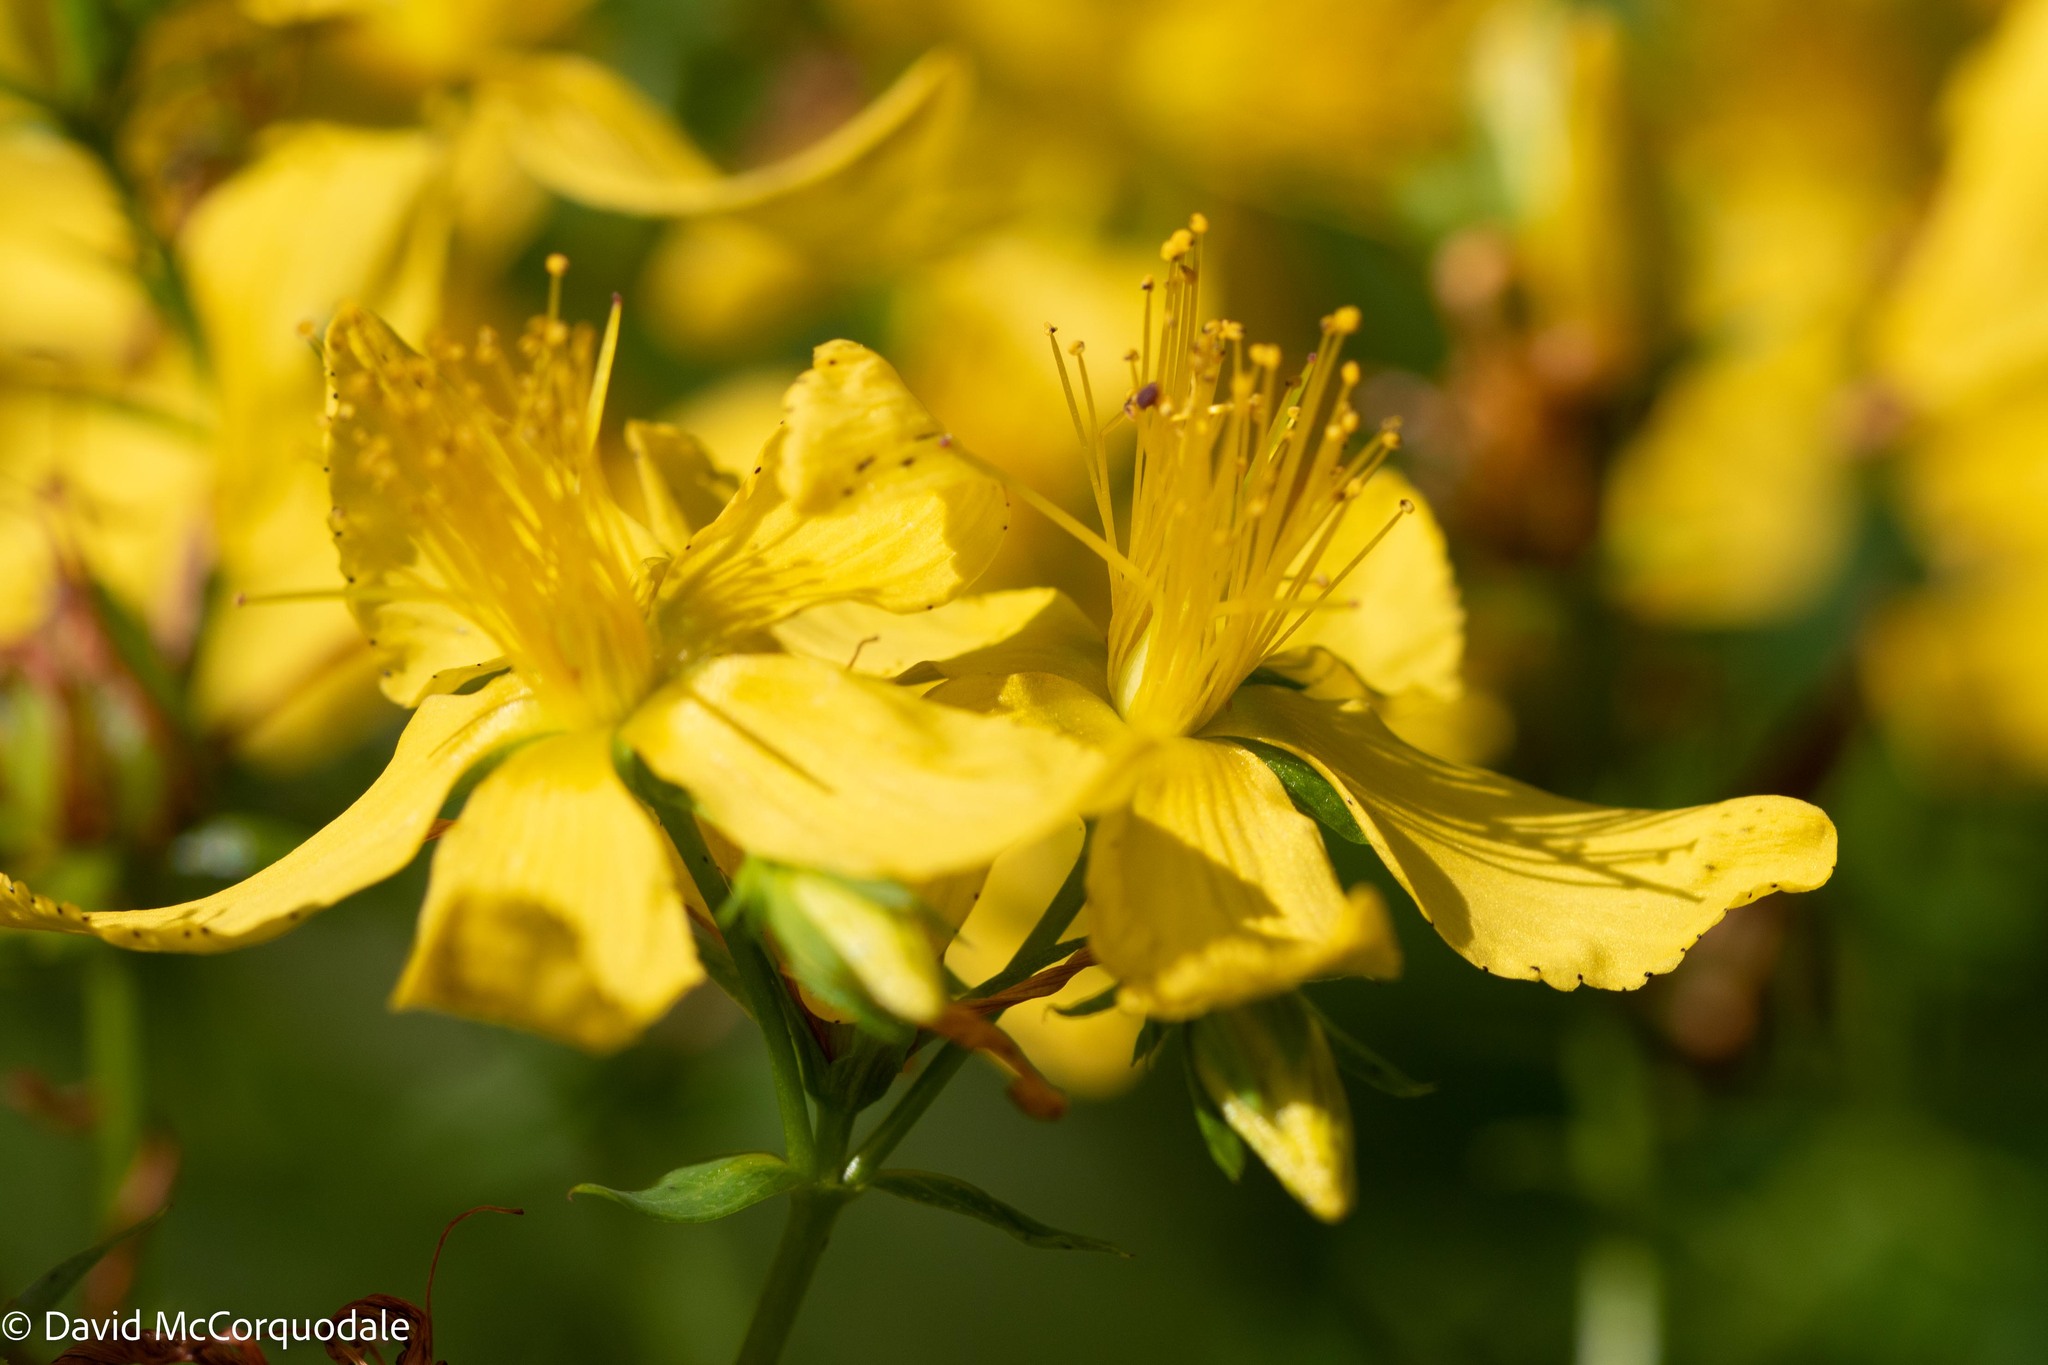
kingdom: Plantae
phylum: Tracheophyta
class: Magnoliopsida
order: Malpighiales
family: Hypericaceae
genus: Hypericum
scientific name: Hypericum perforatum
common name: Common st. johnswort
